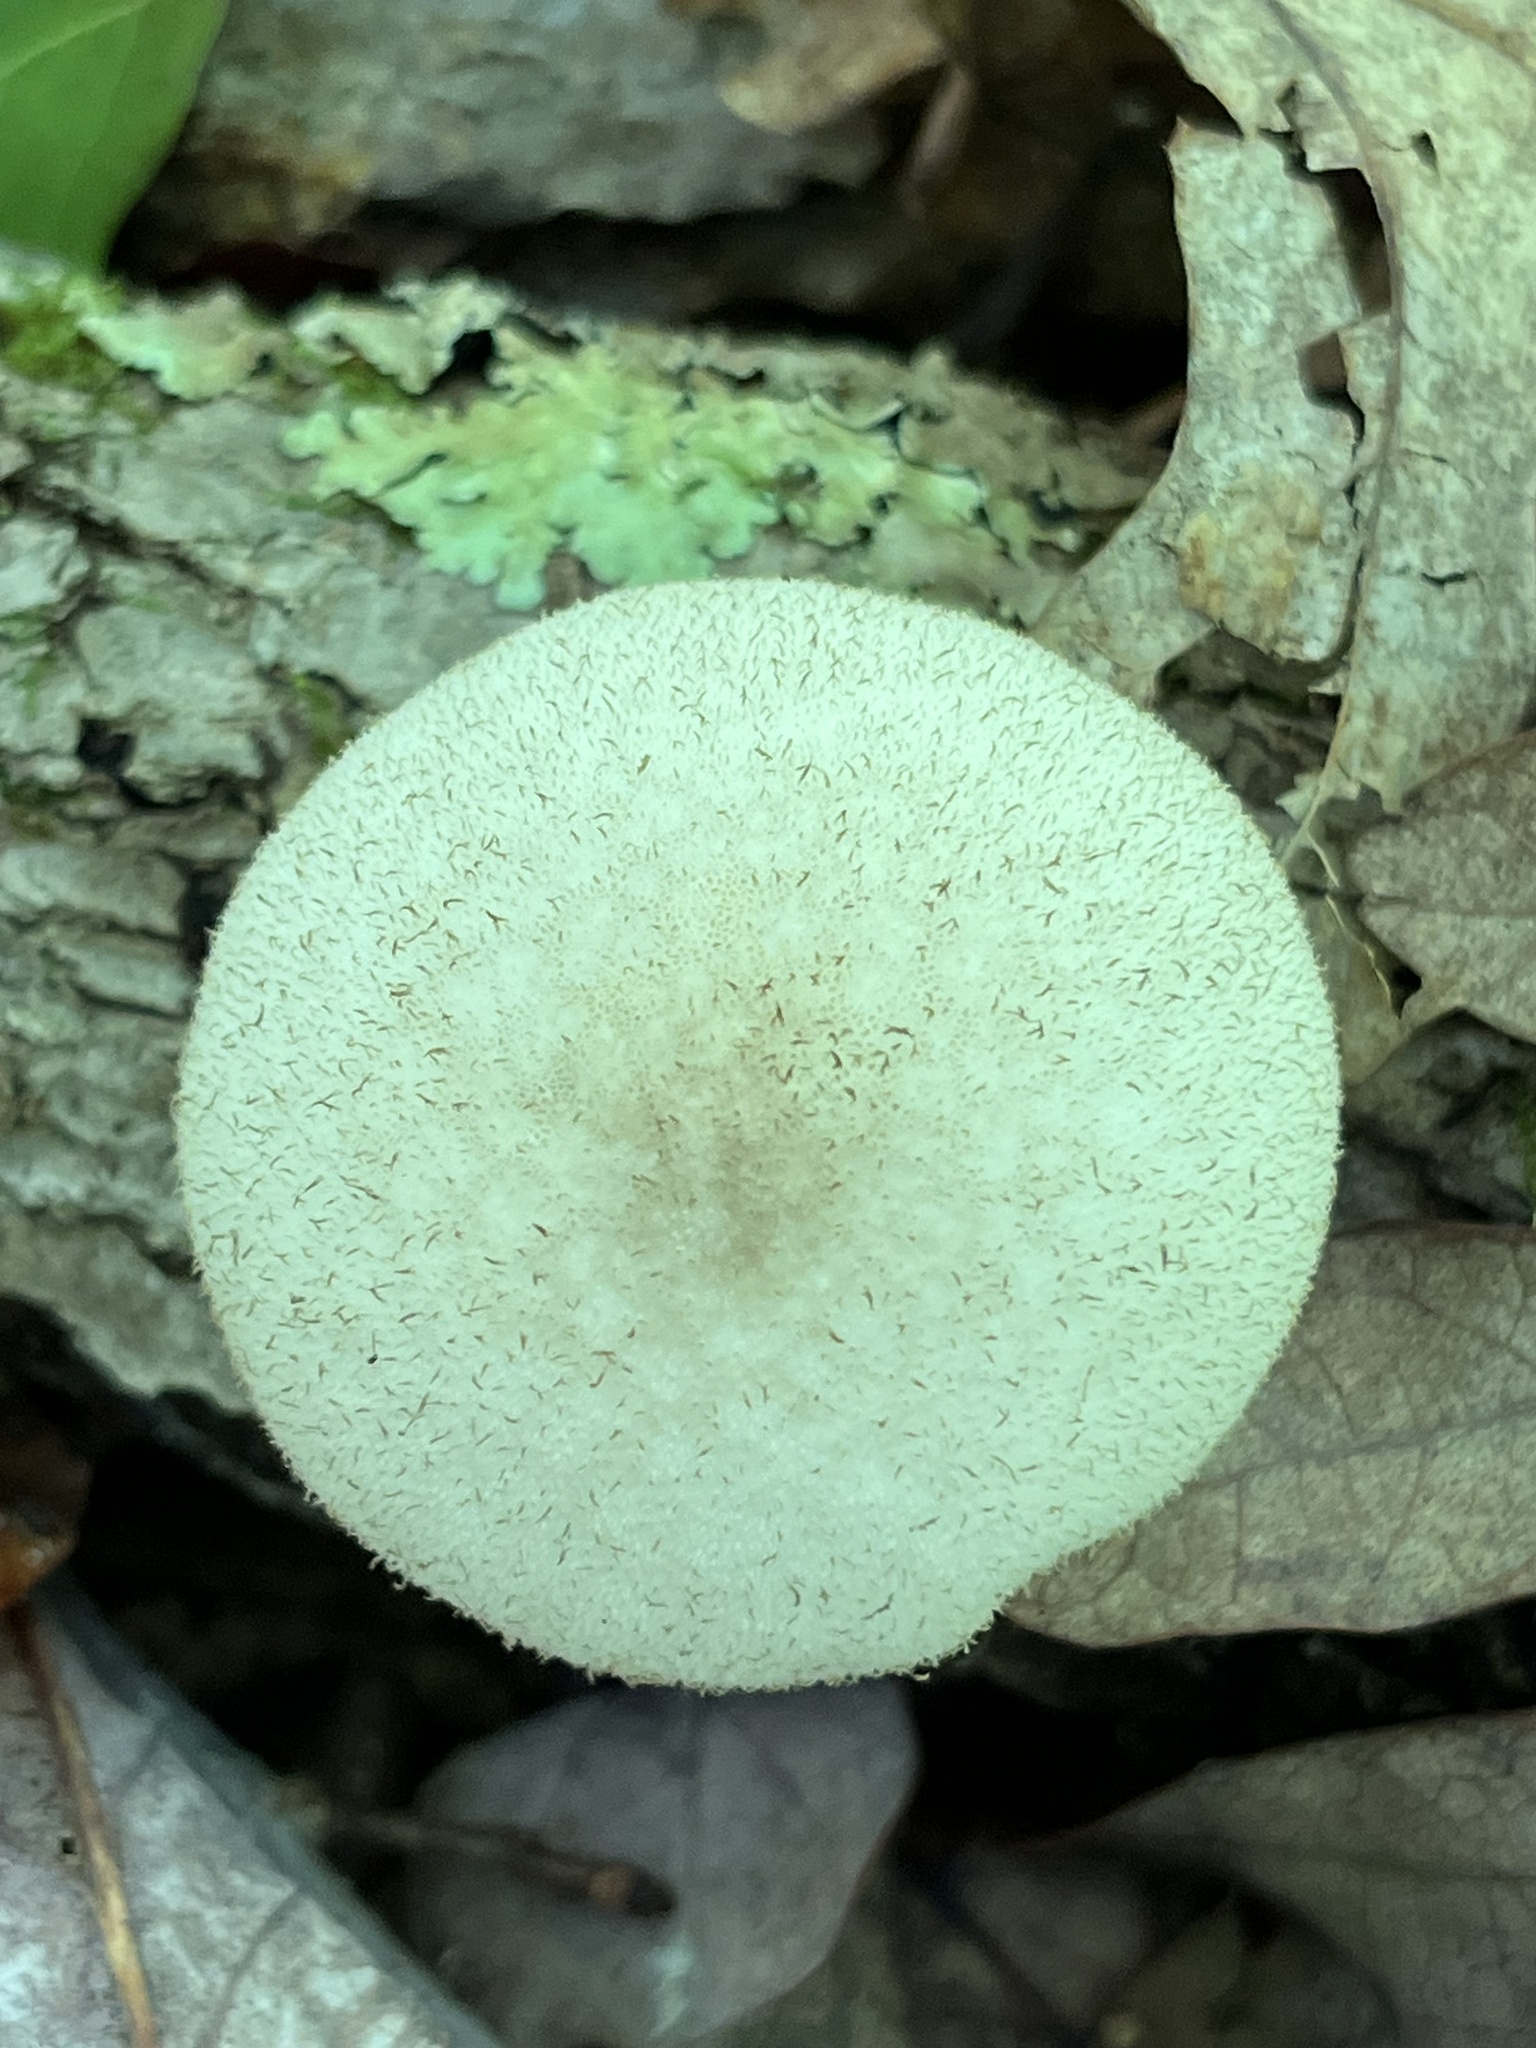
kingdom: Fungi
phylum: Basidiomycota
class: Agaricomycetes
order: Agaricales
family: Lycoperdaceae
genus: Lycoperdon
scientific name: Lycoperdon perlatum
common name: Common puffball
